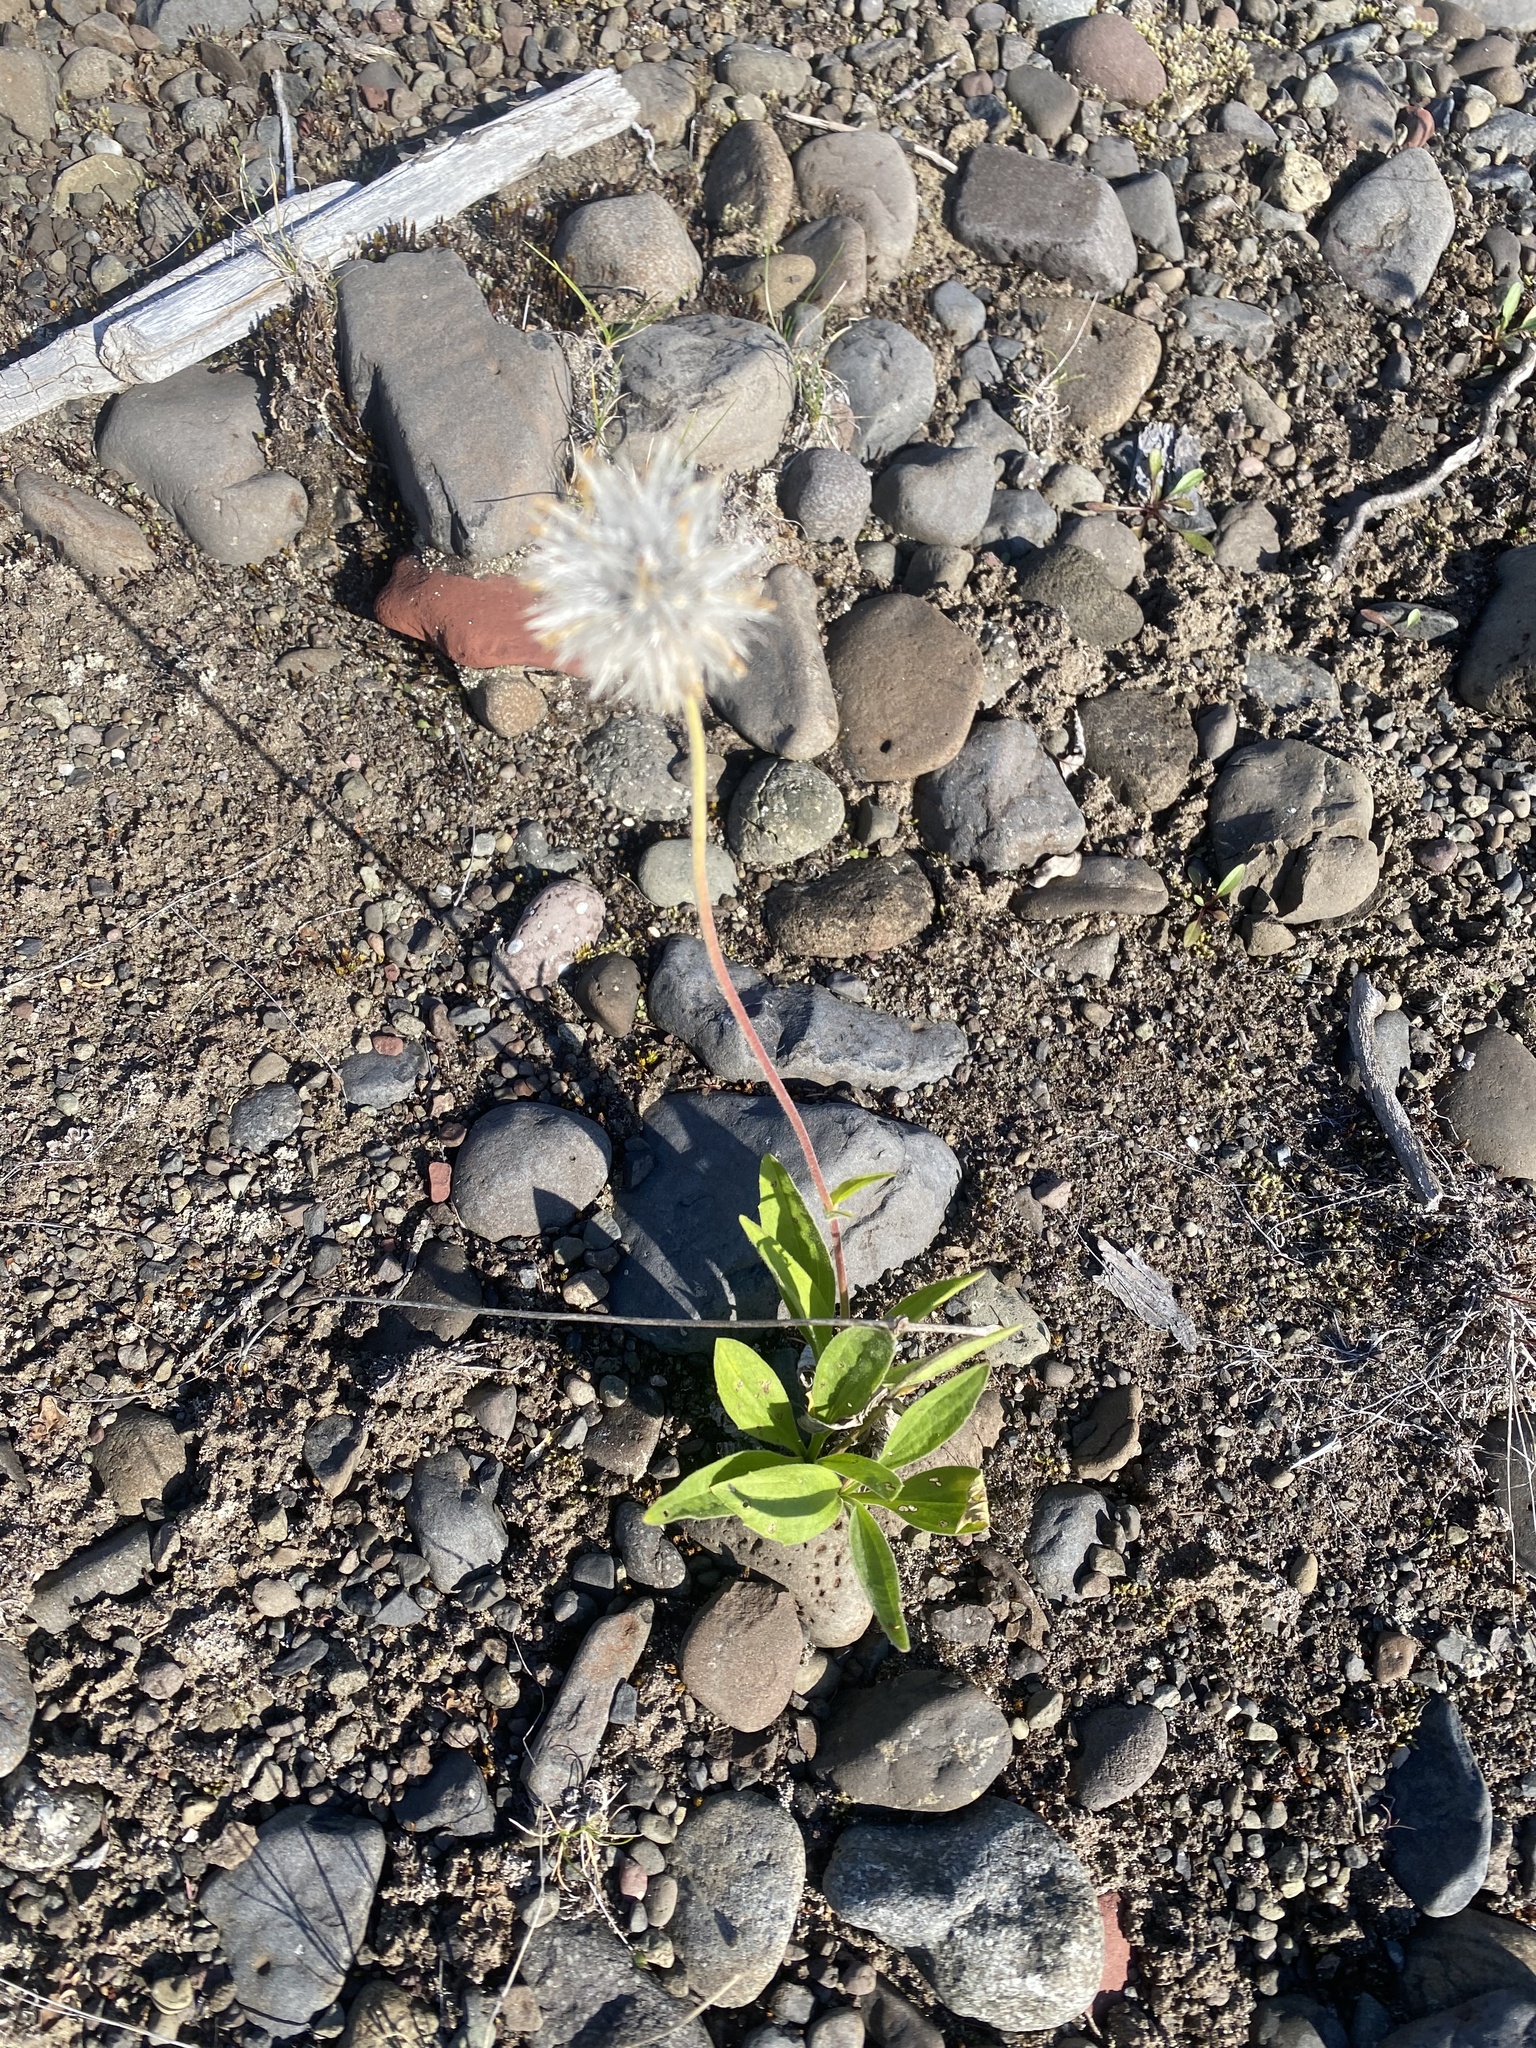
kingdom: Plantae
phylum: Tracheophyta
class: Magnoliopsida
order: Asterales
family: Asteraceae
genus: Arnica
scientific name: Arnica angustifolia
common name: Arctic arnica
